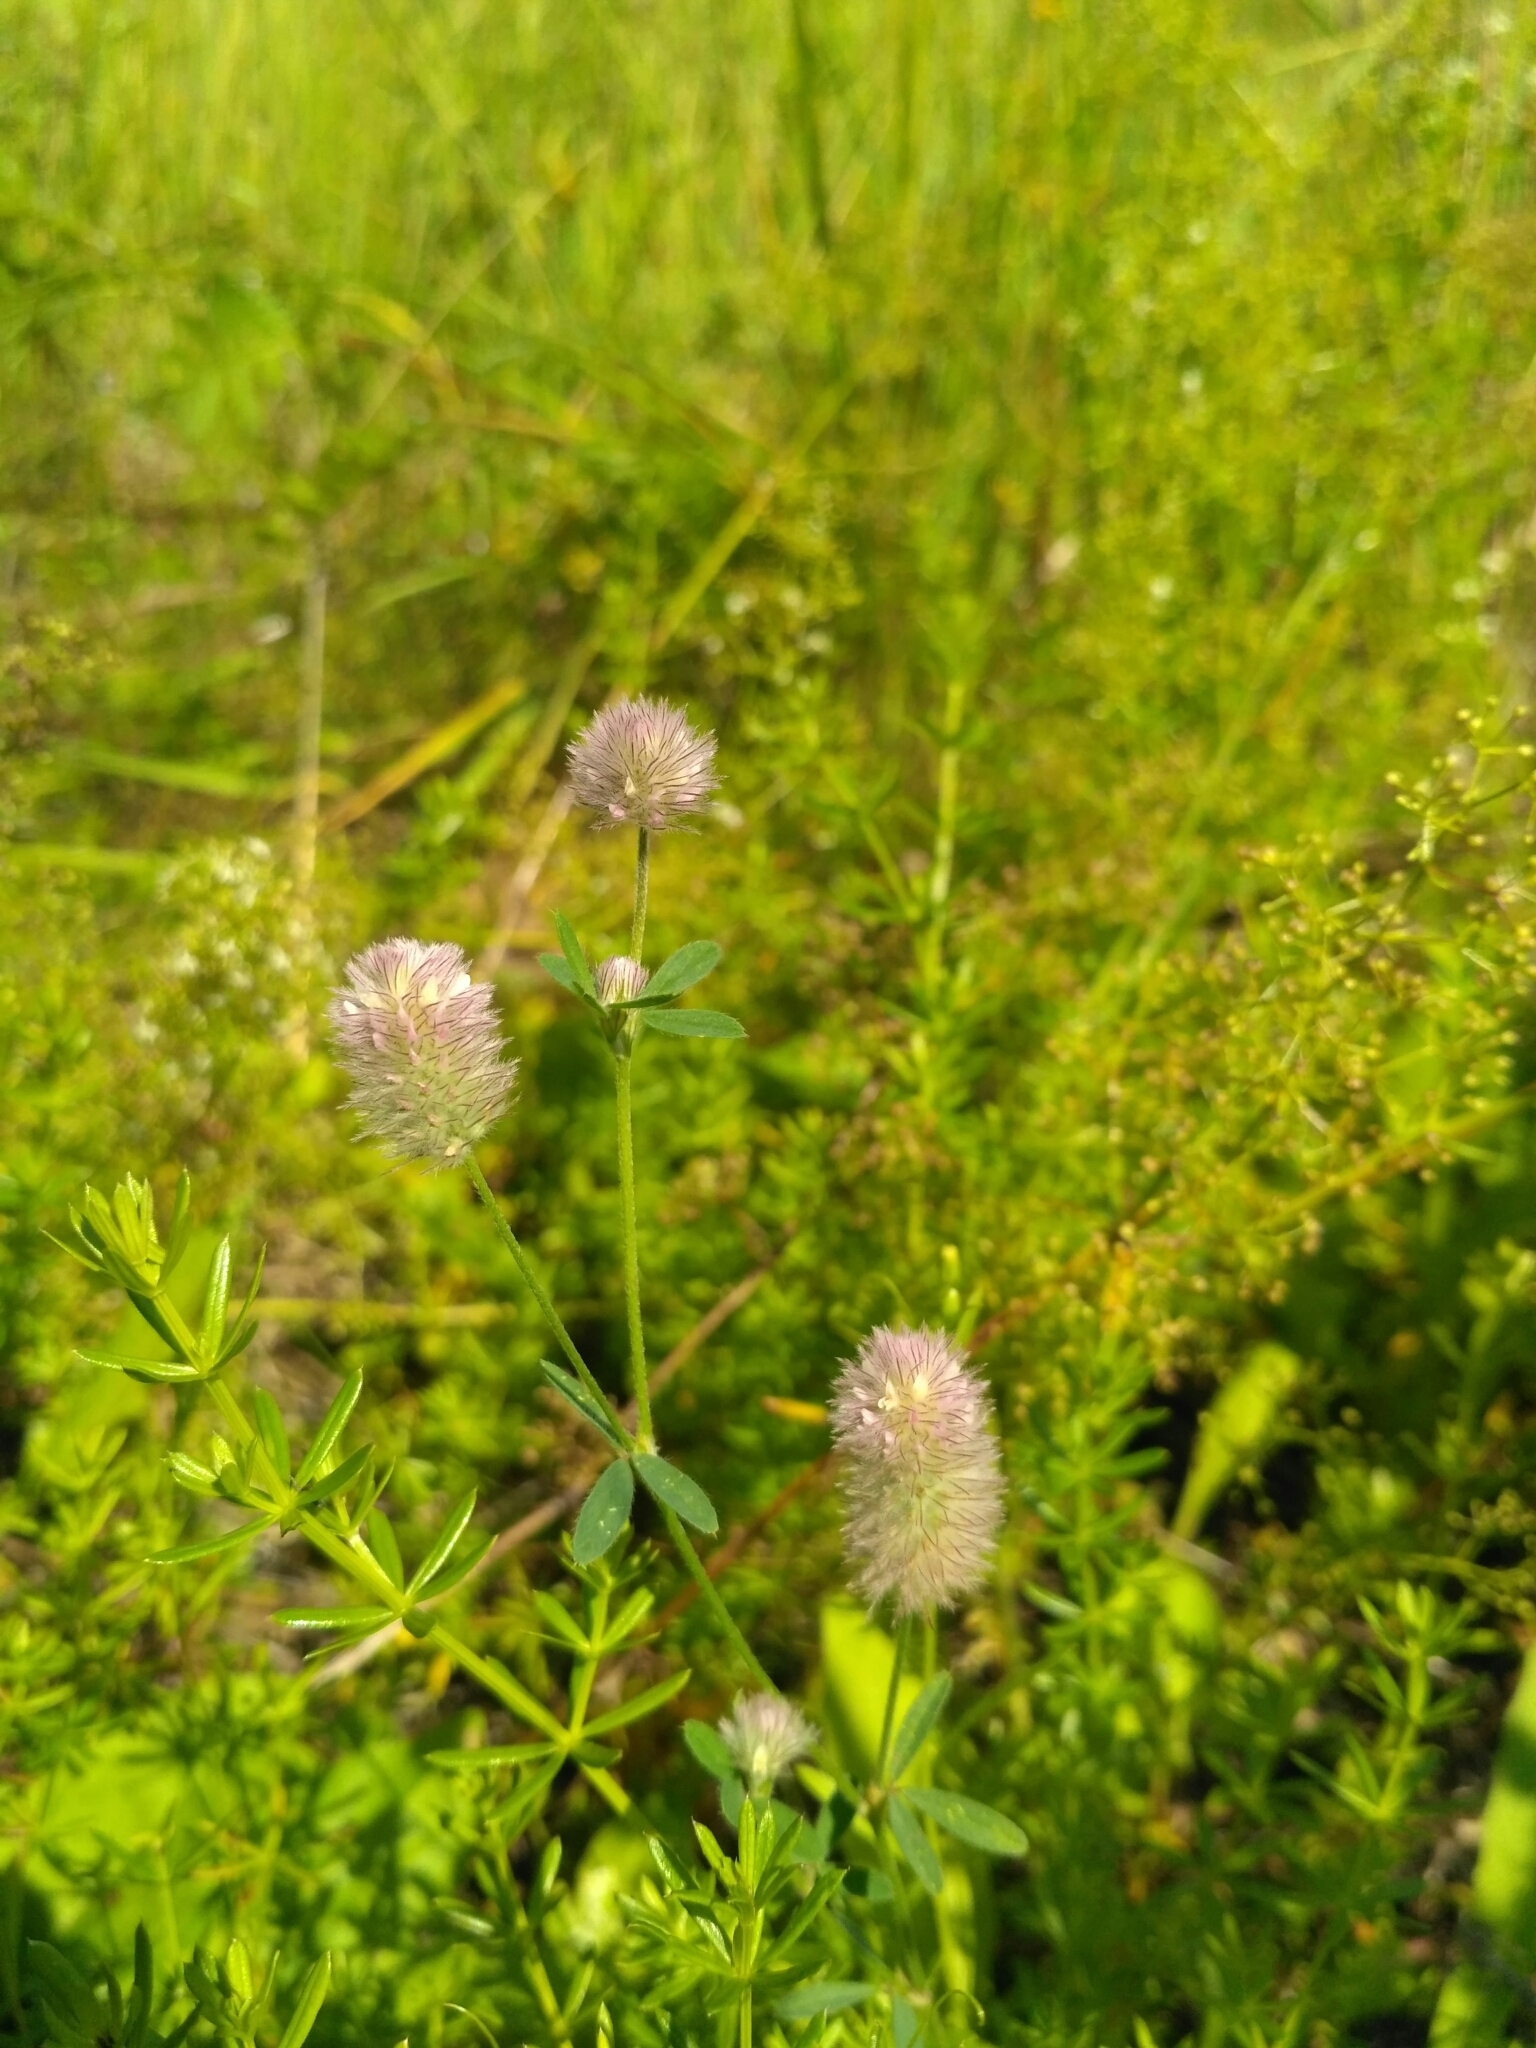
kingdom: Plantae
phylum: Tracheophyta
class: Magnoliopsida
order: Fabales
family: Fabaceae
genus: Trifolium
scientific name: Trifolium arvense
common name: Hare's-foot clover
